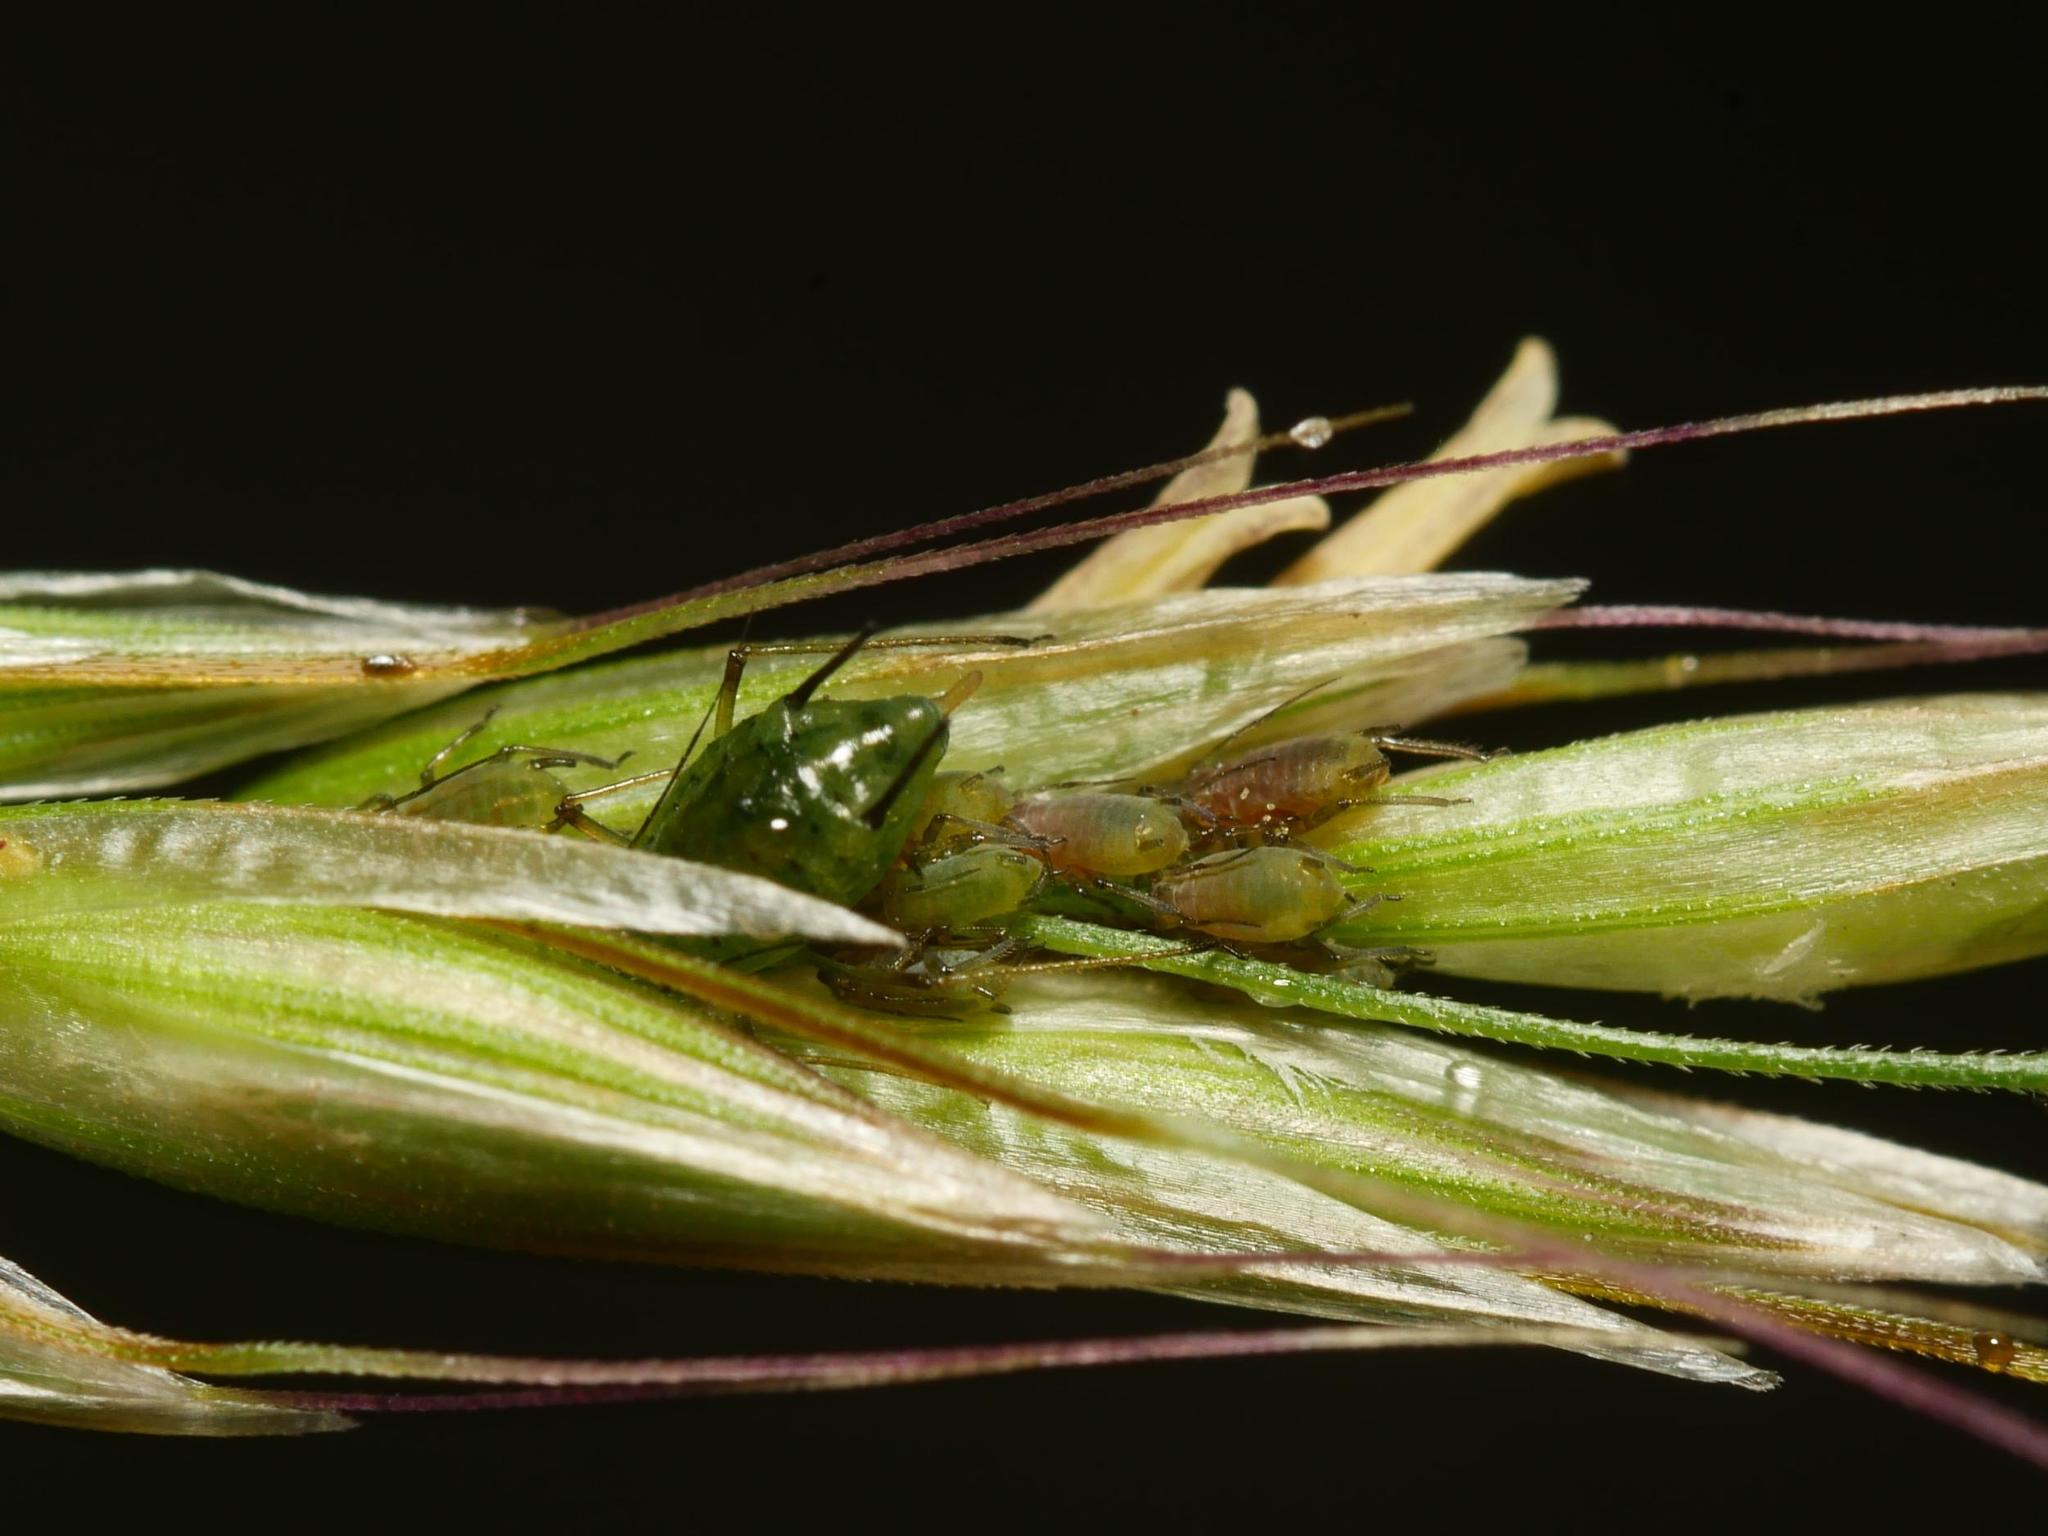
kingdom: Animalia
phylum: Arthropoda
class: Insecta
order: Hemiptera
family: Aphididae
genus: Sitobion
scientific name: Sitobion fragariae
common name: Blackberry cereal aphid
